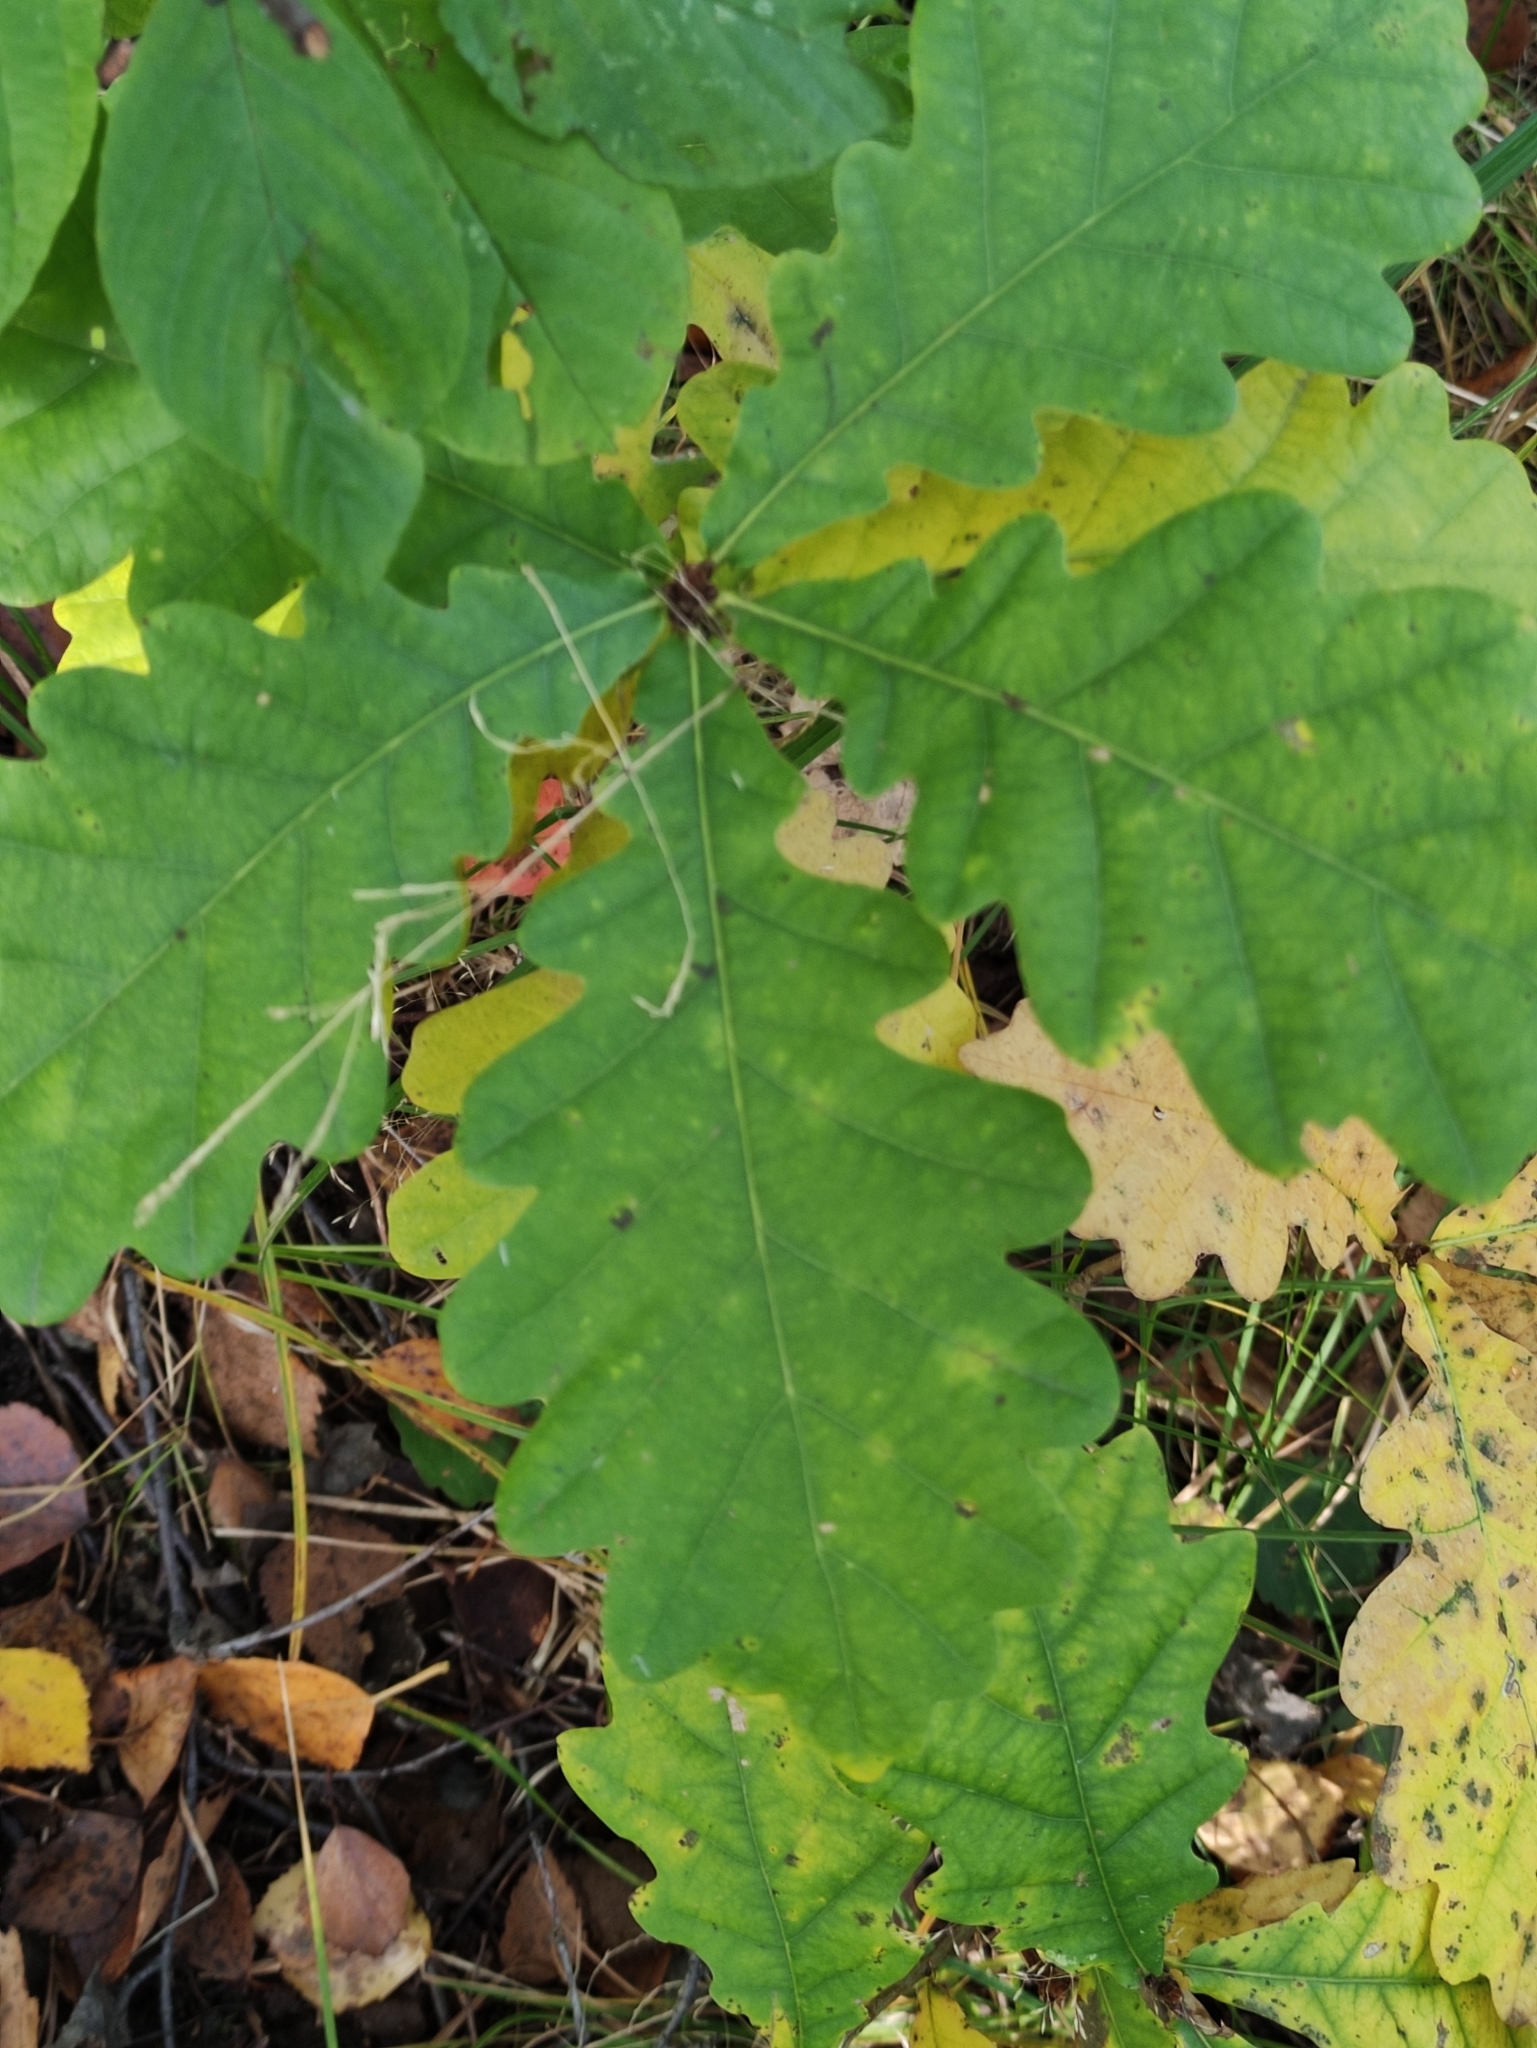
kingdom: Plantae
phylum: Tracheophyta
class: Magnoliopsida
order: Fagales
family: Fagaceae
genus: Quercus
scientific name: Quercus robur
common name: Pedunculate oak
